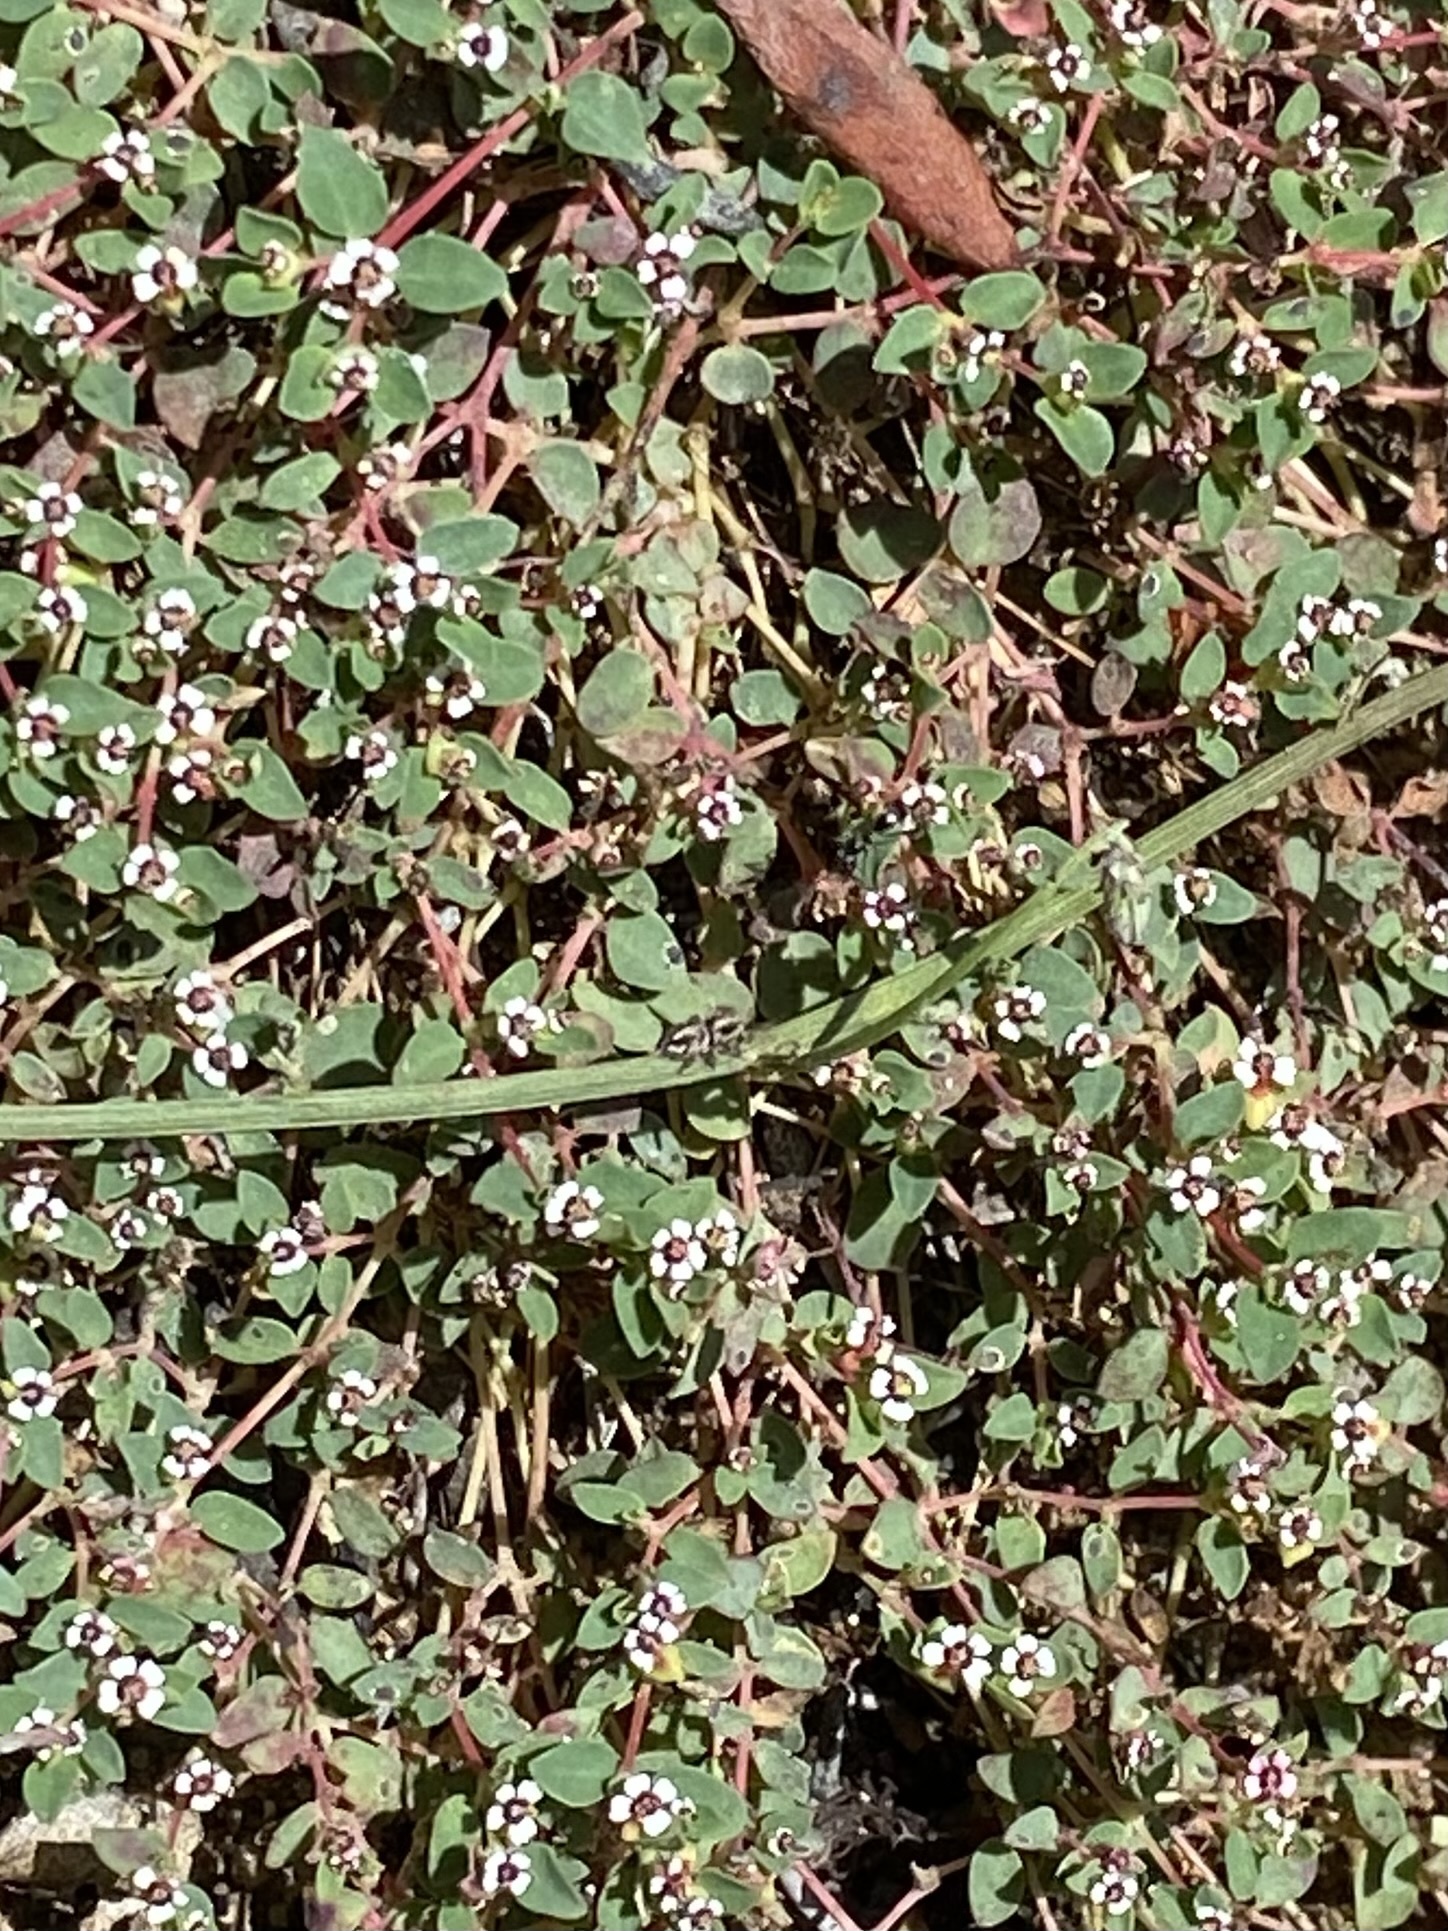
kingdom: Plantae
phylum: Tracheophyta
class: Magnoliopsida
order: Malpighiales
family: Euphorbiaceae
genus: Euphorbia
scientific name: Euphorbia polycarpa
